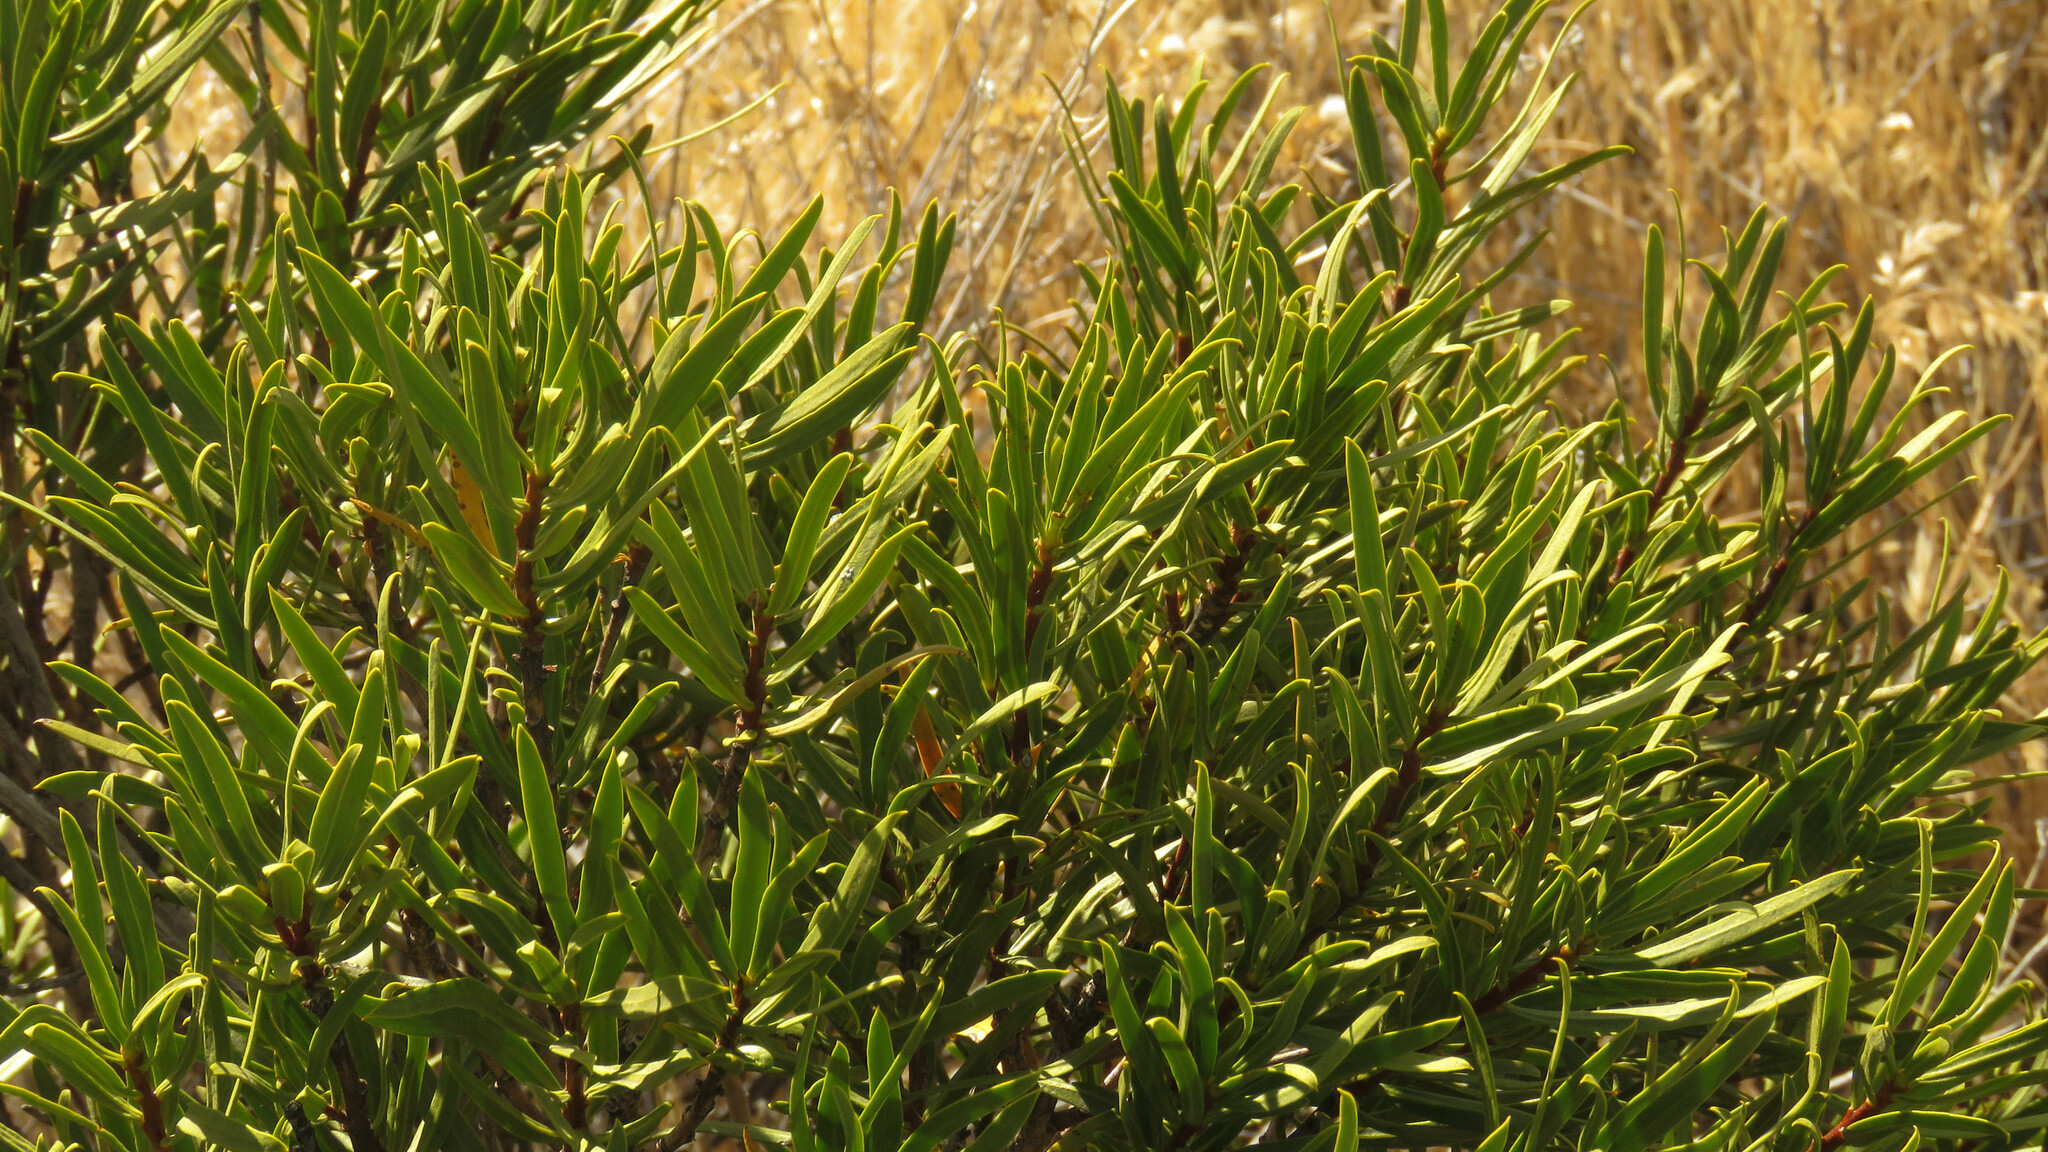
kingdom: Plantae
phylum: Tracheophyta
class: Magnoliopsida
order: Malpighiales
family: Euphorbiaceae
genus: Colliguaja
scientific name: Colliguaja integerrima
